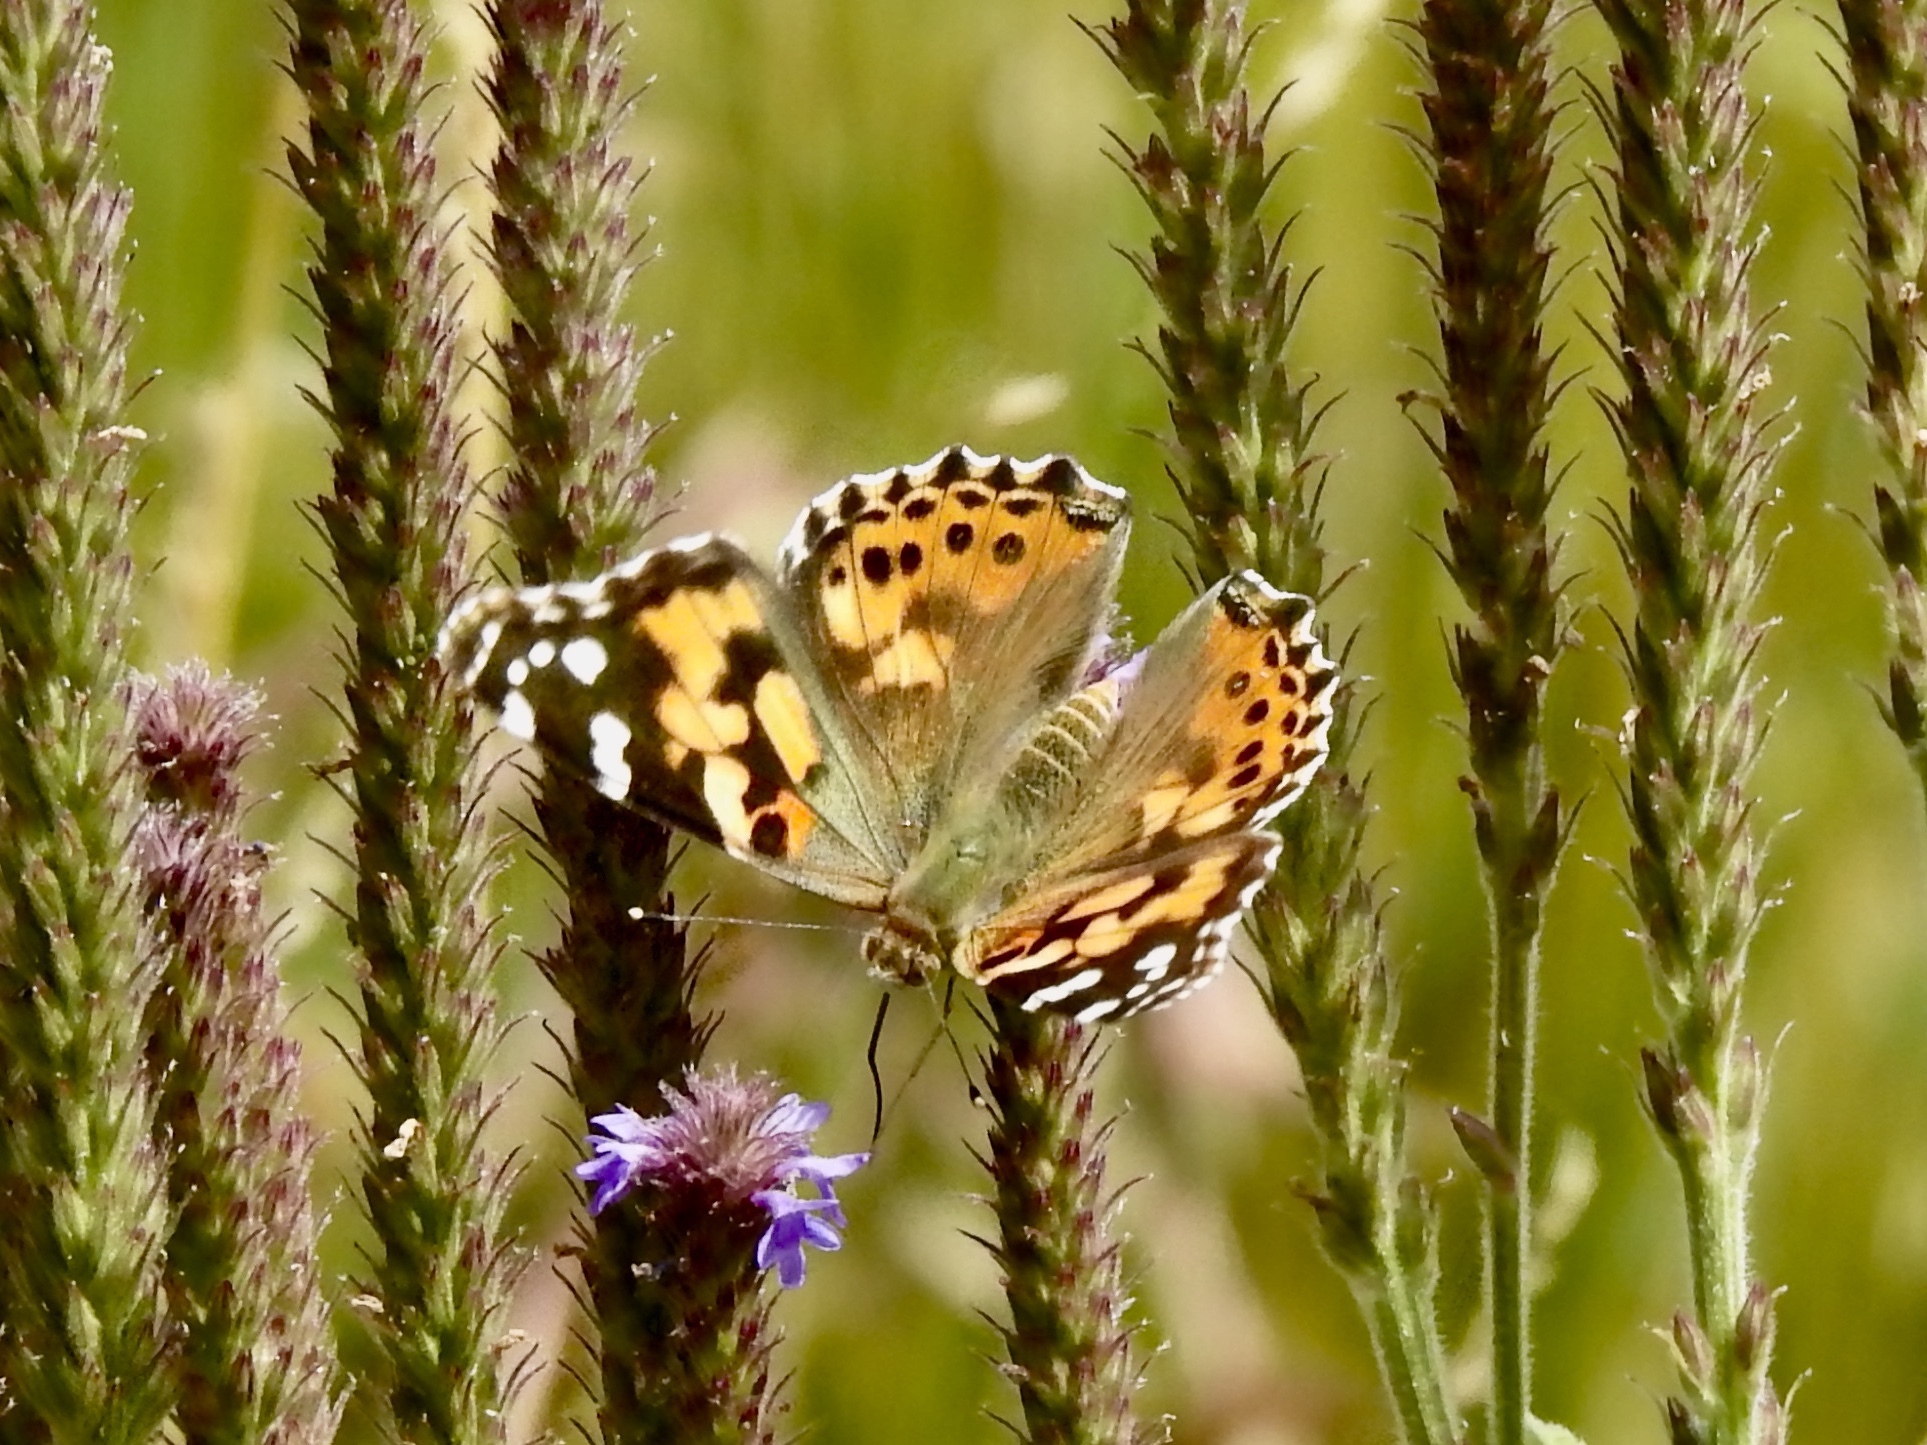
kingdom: Animalia
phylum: Arthropoda
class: Insecta
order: Lepidoptera
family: Nymphalidae
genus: Vanessa
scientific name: Vanessa cardui
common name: Painted lady
